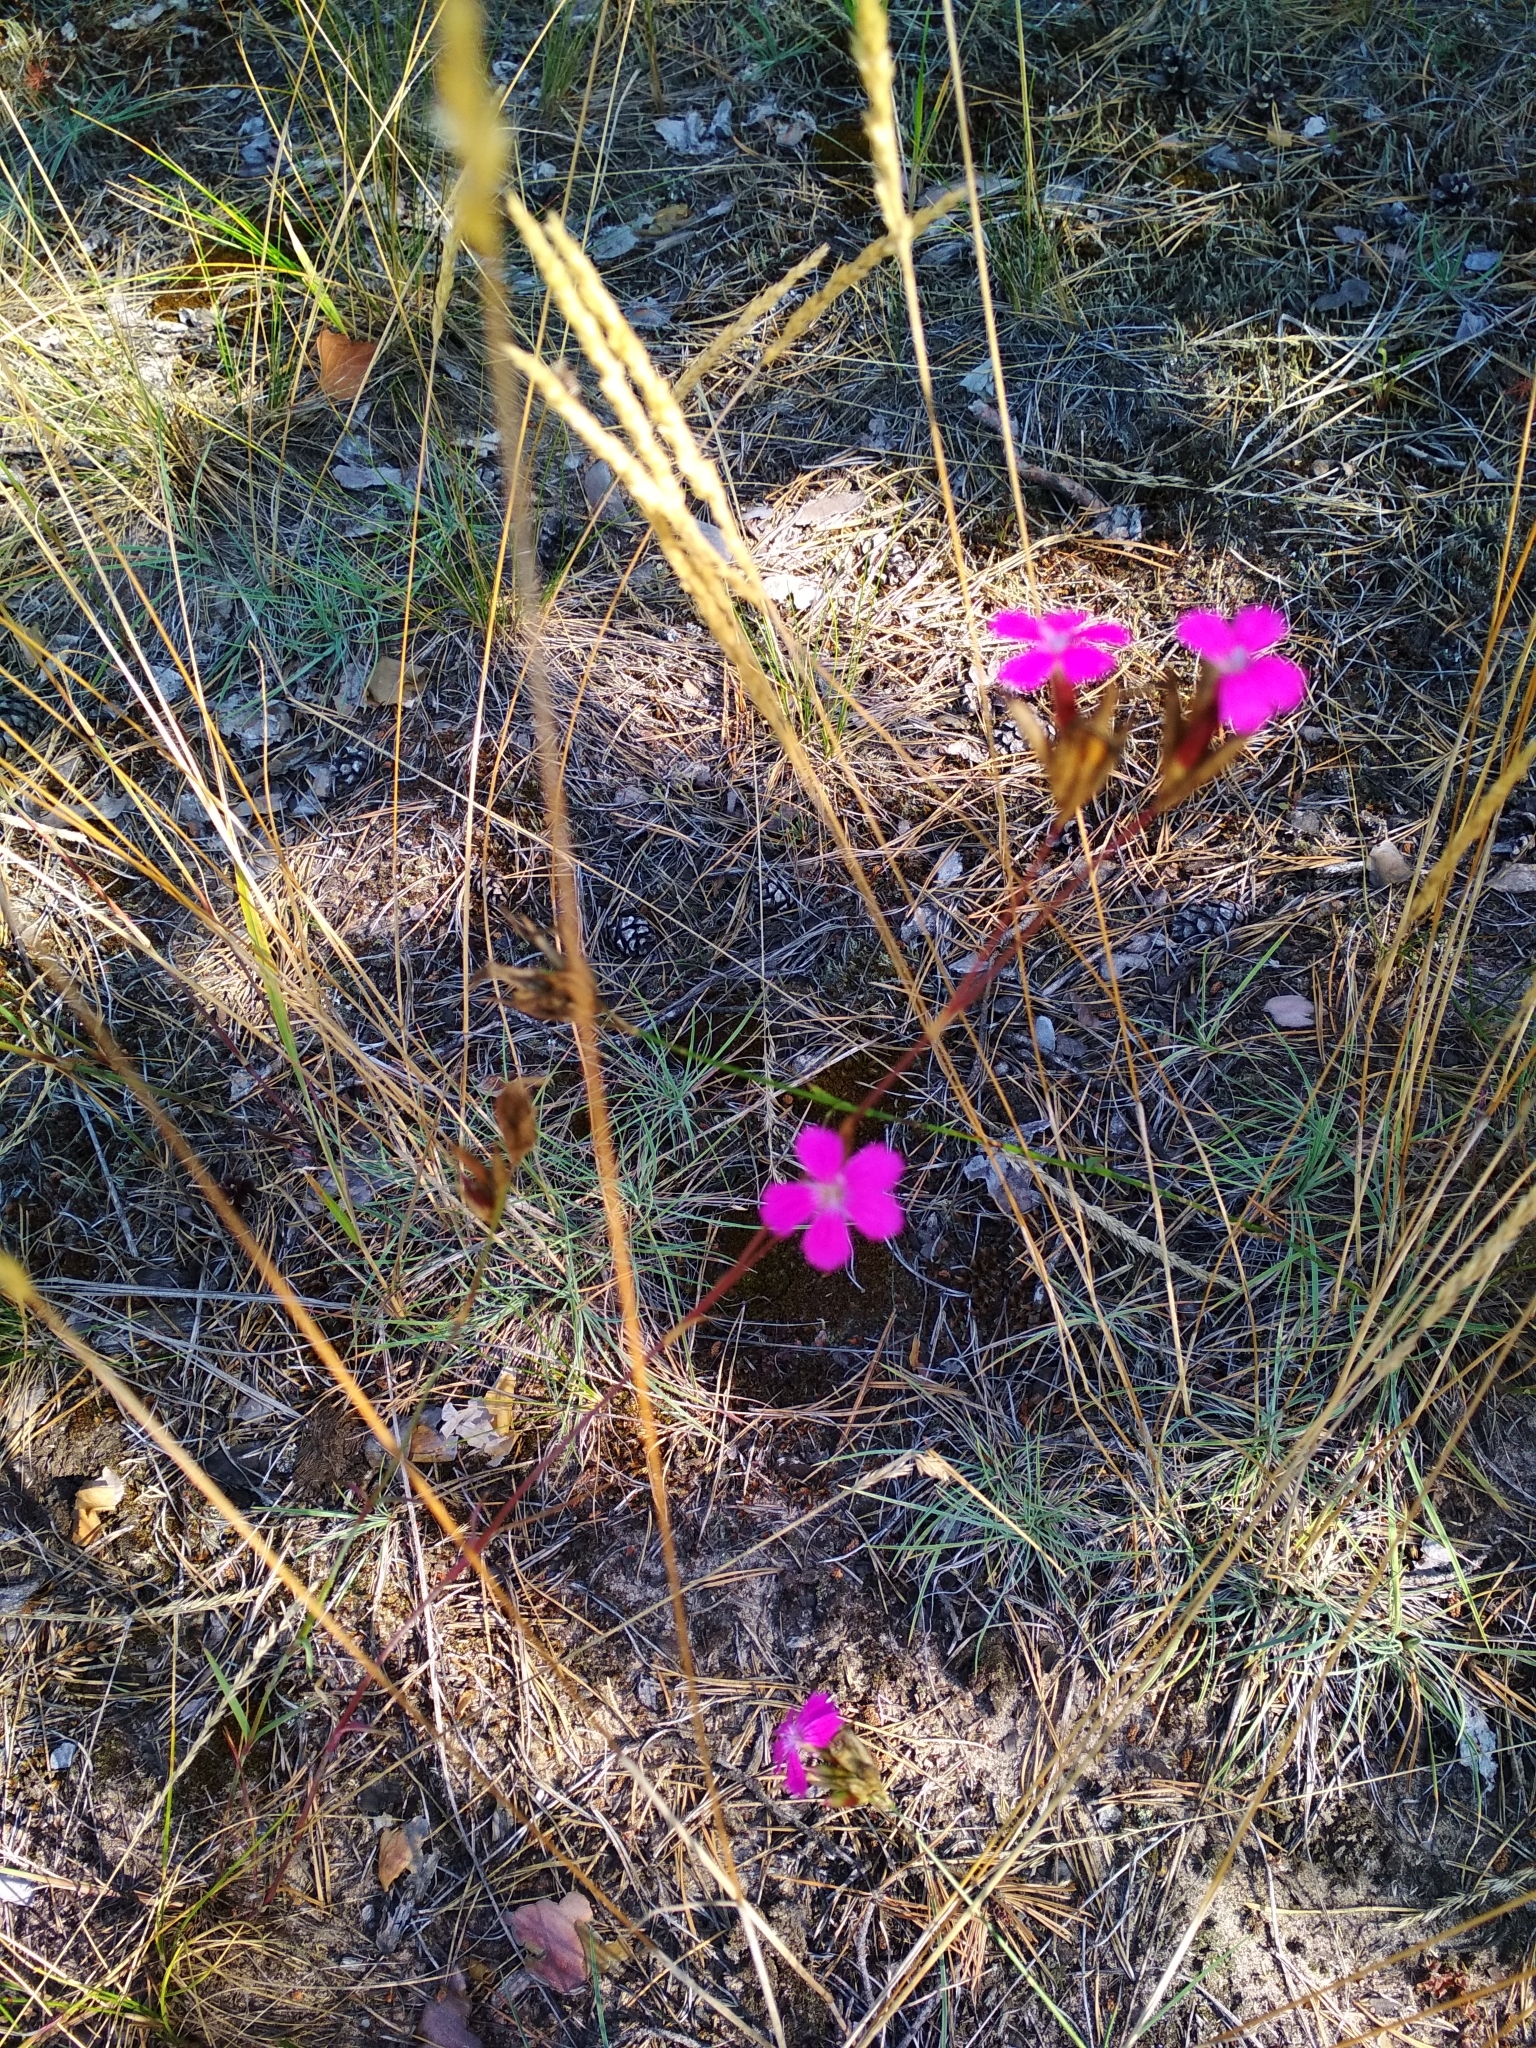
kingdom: Plantae
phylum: Tracheophyta
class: Magnoliopsida
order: Caryophyllales
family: Caryophyllaceae
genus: Dianthus
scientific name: Dianthus borbasii
